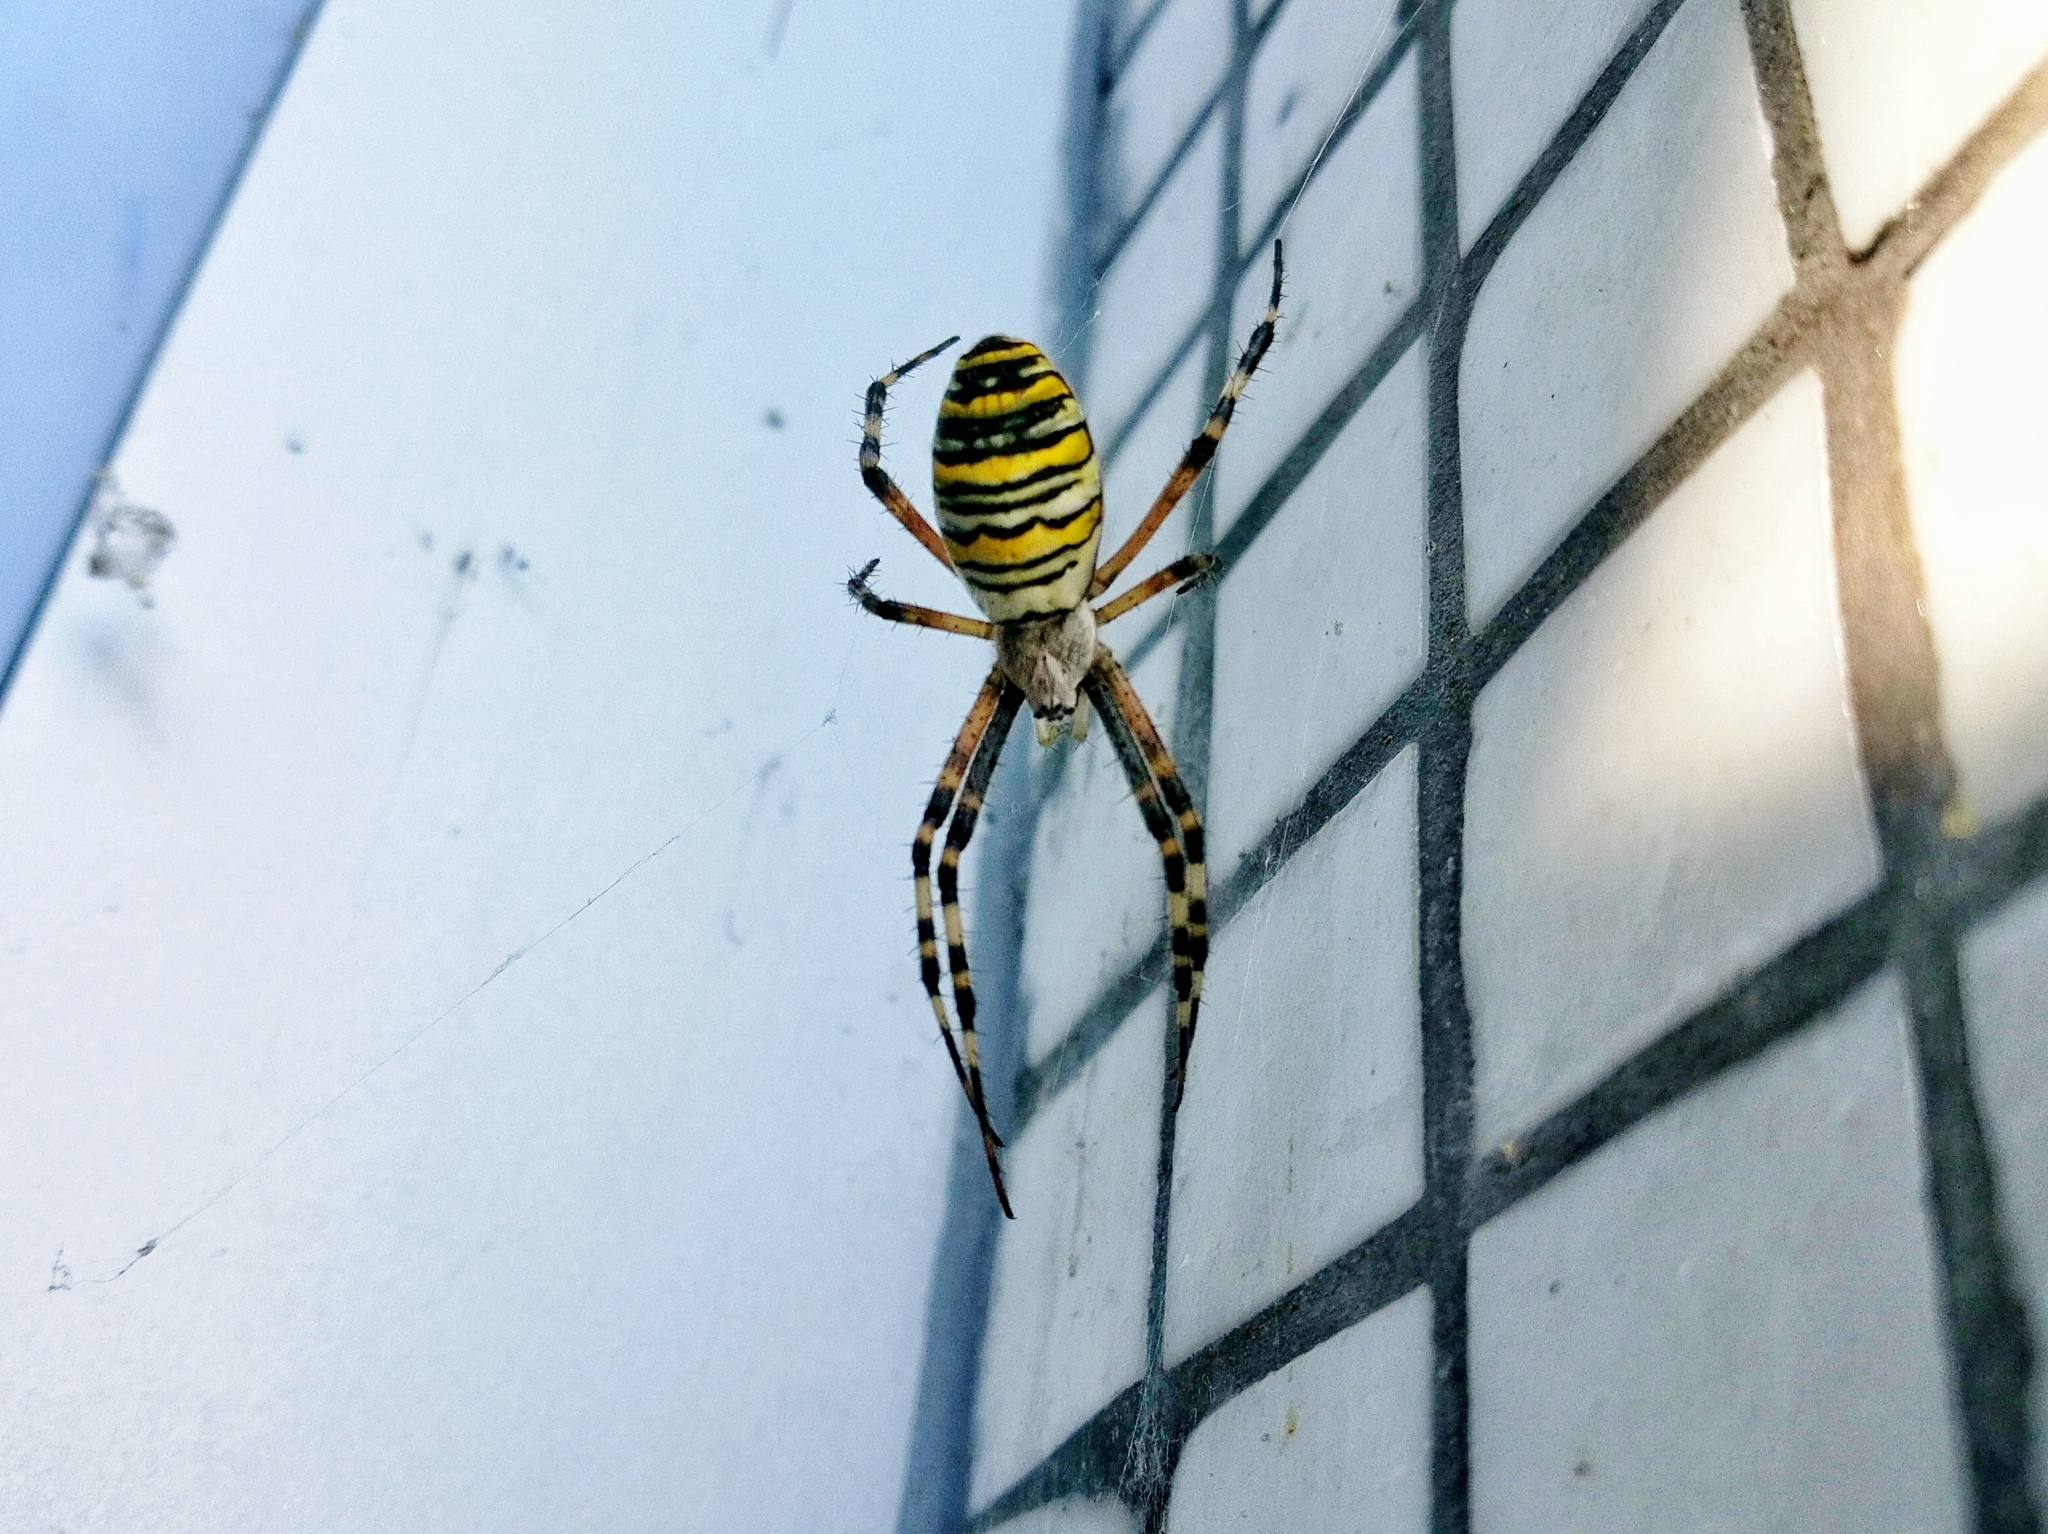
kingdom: Animalia
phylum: Arthropoda
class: Arachnida
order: Araneae
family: Araneidae
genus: Argiope
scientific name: Argiope bruennichi
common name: Wasp spider
